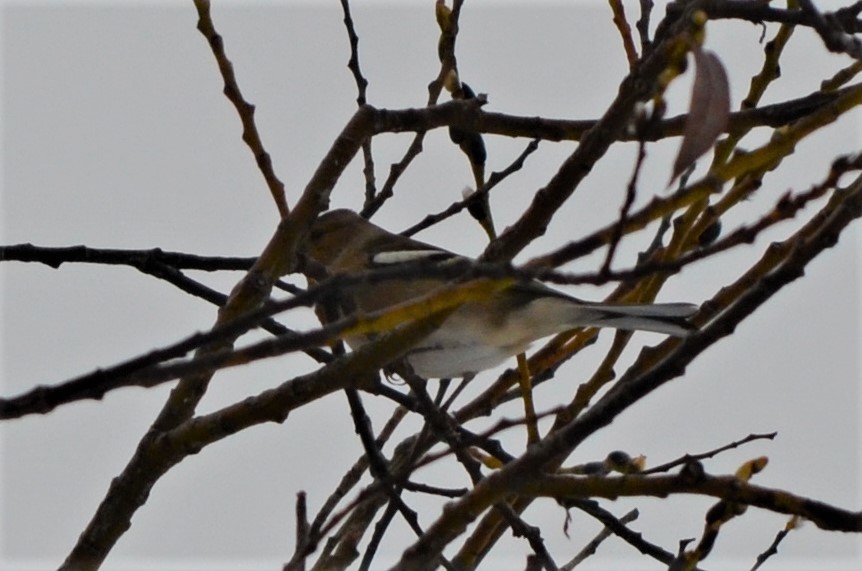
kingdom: Animalia
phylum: Chordata
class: Aves
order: Passeriformes
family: Fringillidae
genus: Fringilla
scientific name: Fringilla coelebs
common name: Common chaffinch
